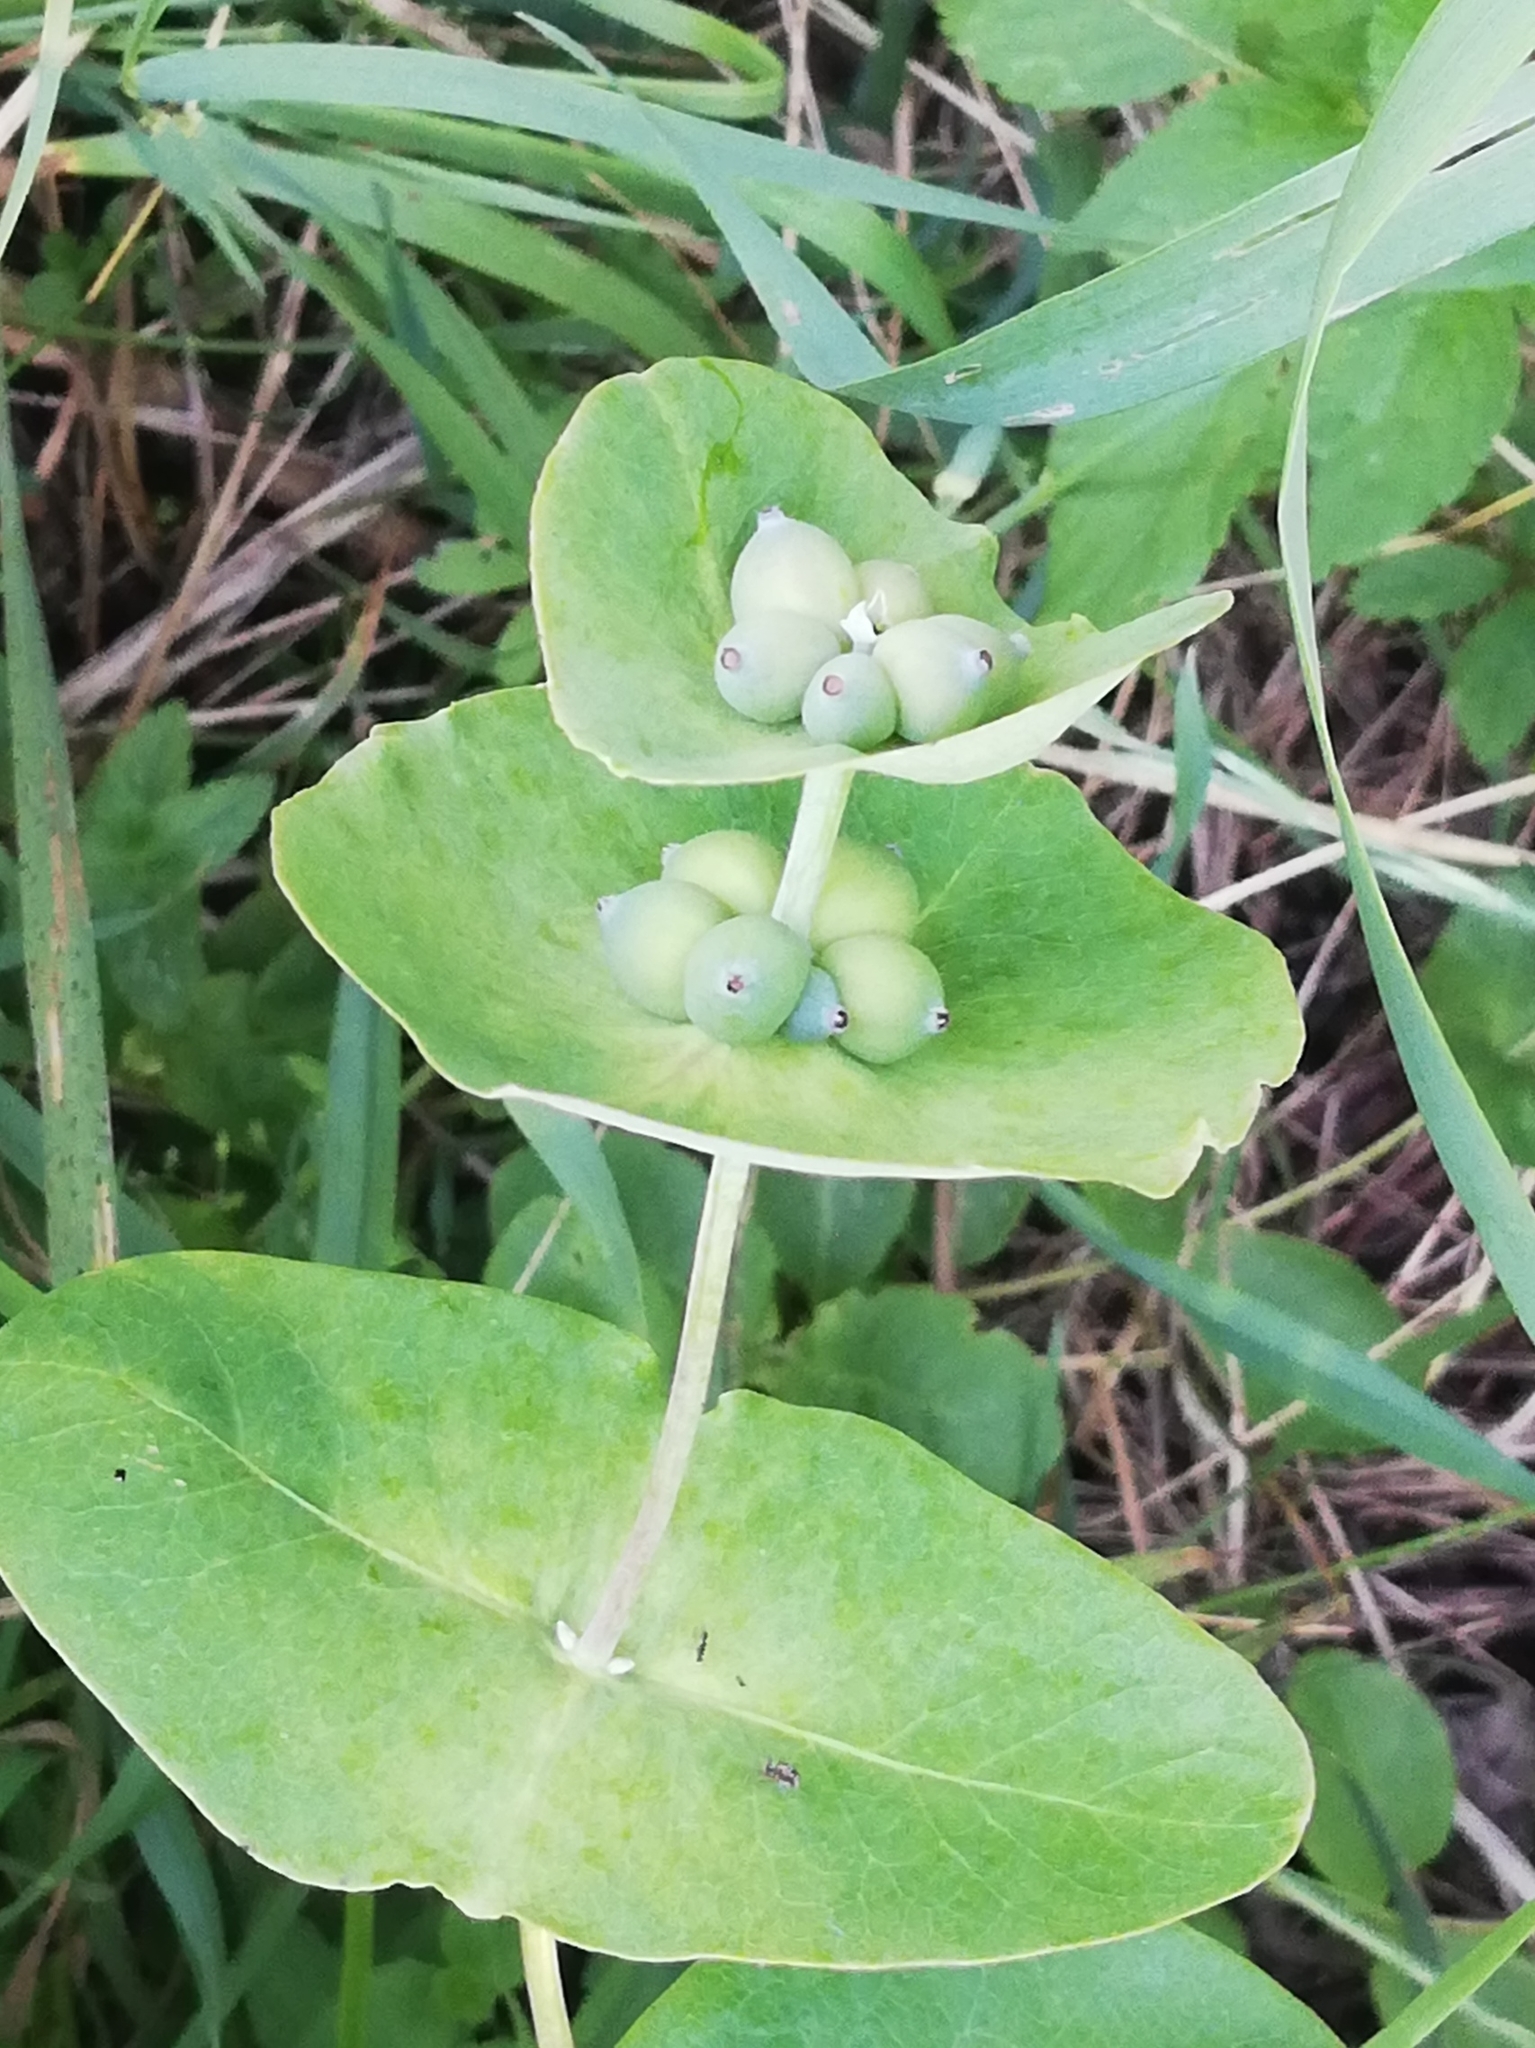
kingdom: Plantae
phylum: Tracheophyta
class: Magnoliopsida
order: Dipsacales
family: Caprifoliaceae
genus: Lonicera
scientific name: Lonicera caprifolium
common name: Perfoliate honeysuckle
